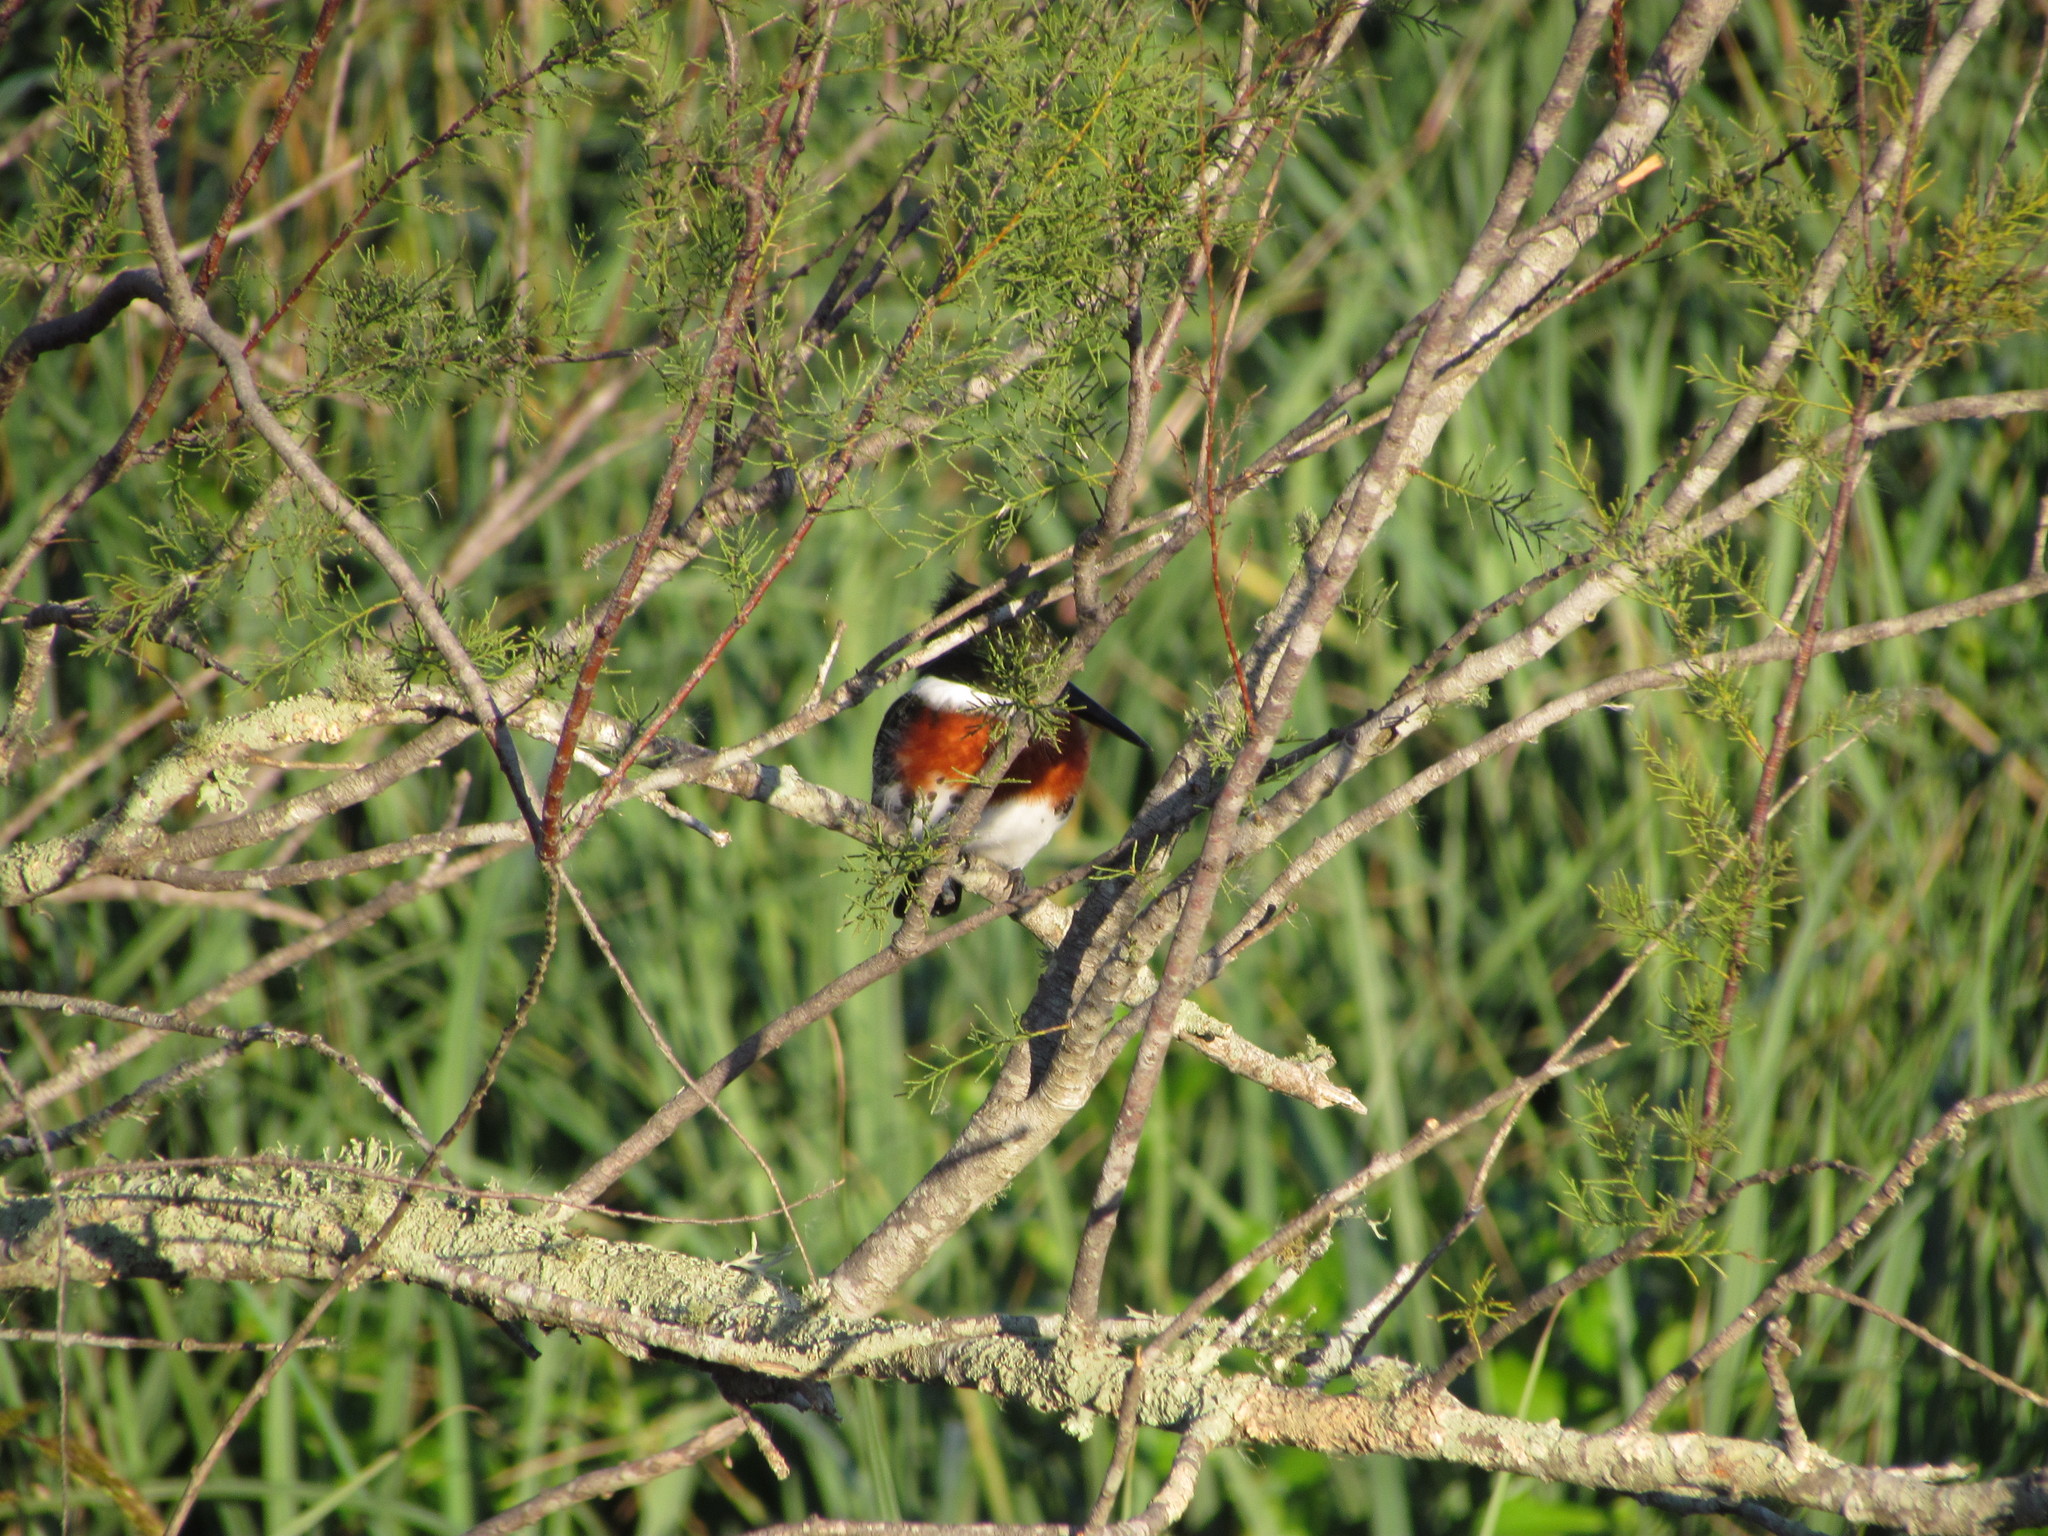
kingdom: Animalia
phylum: Chordata
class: Aves
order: Coraciiformes
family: Alcedinidae
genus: Chloroceryle
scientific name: Chloroceryle americana
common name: Green kingfisher
